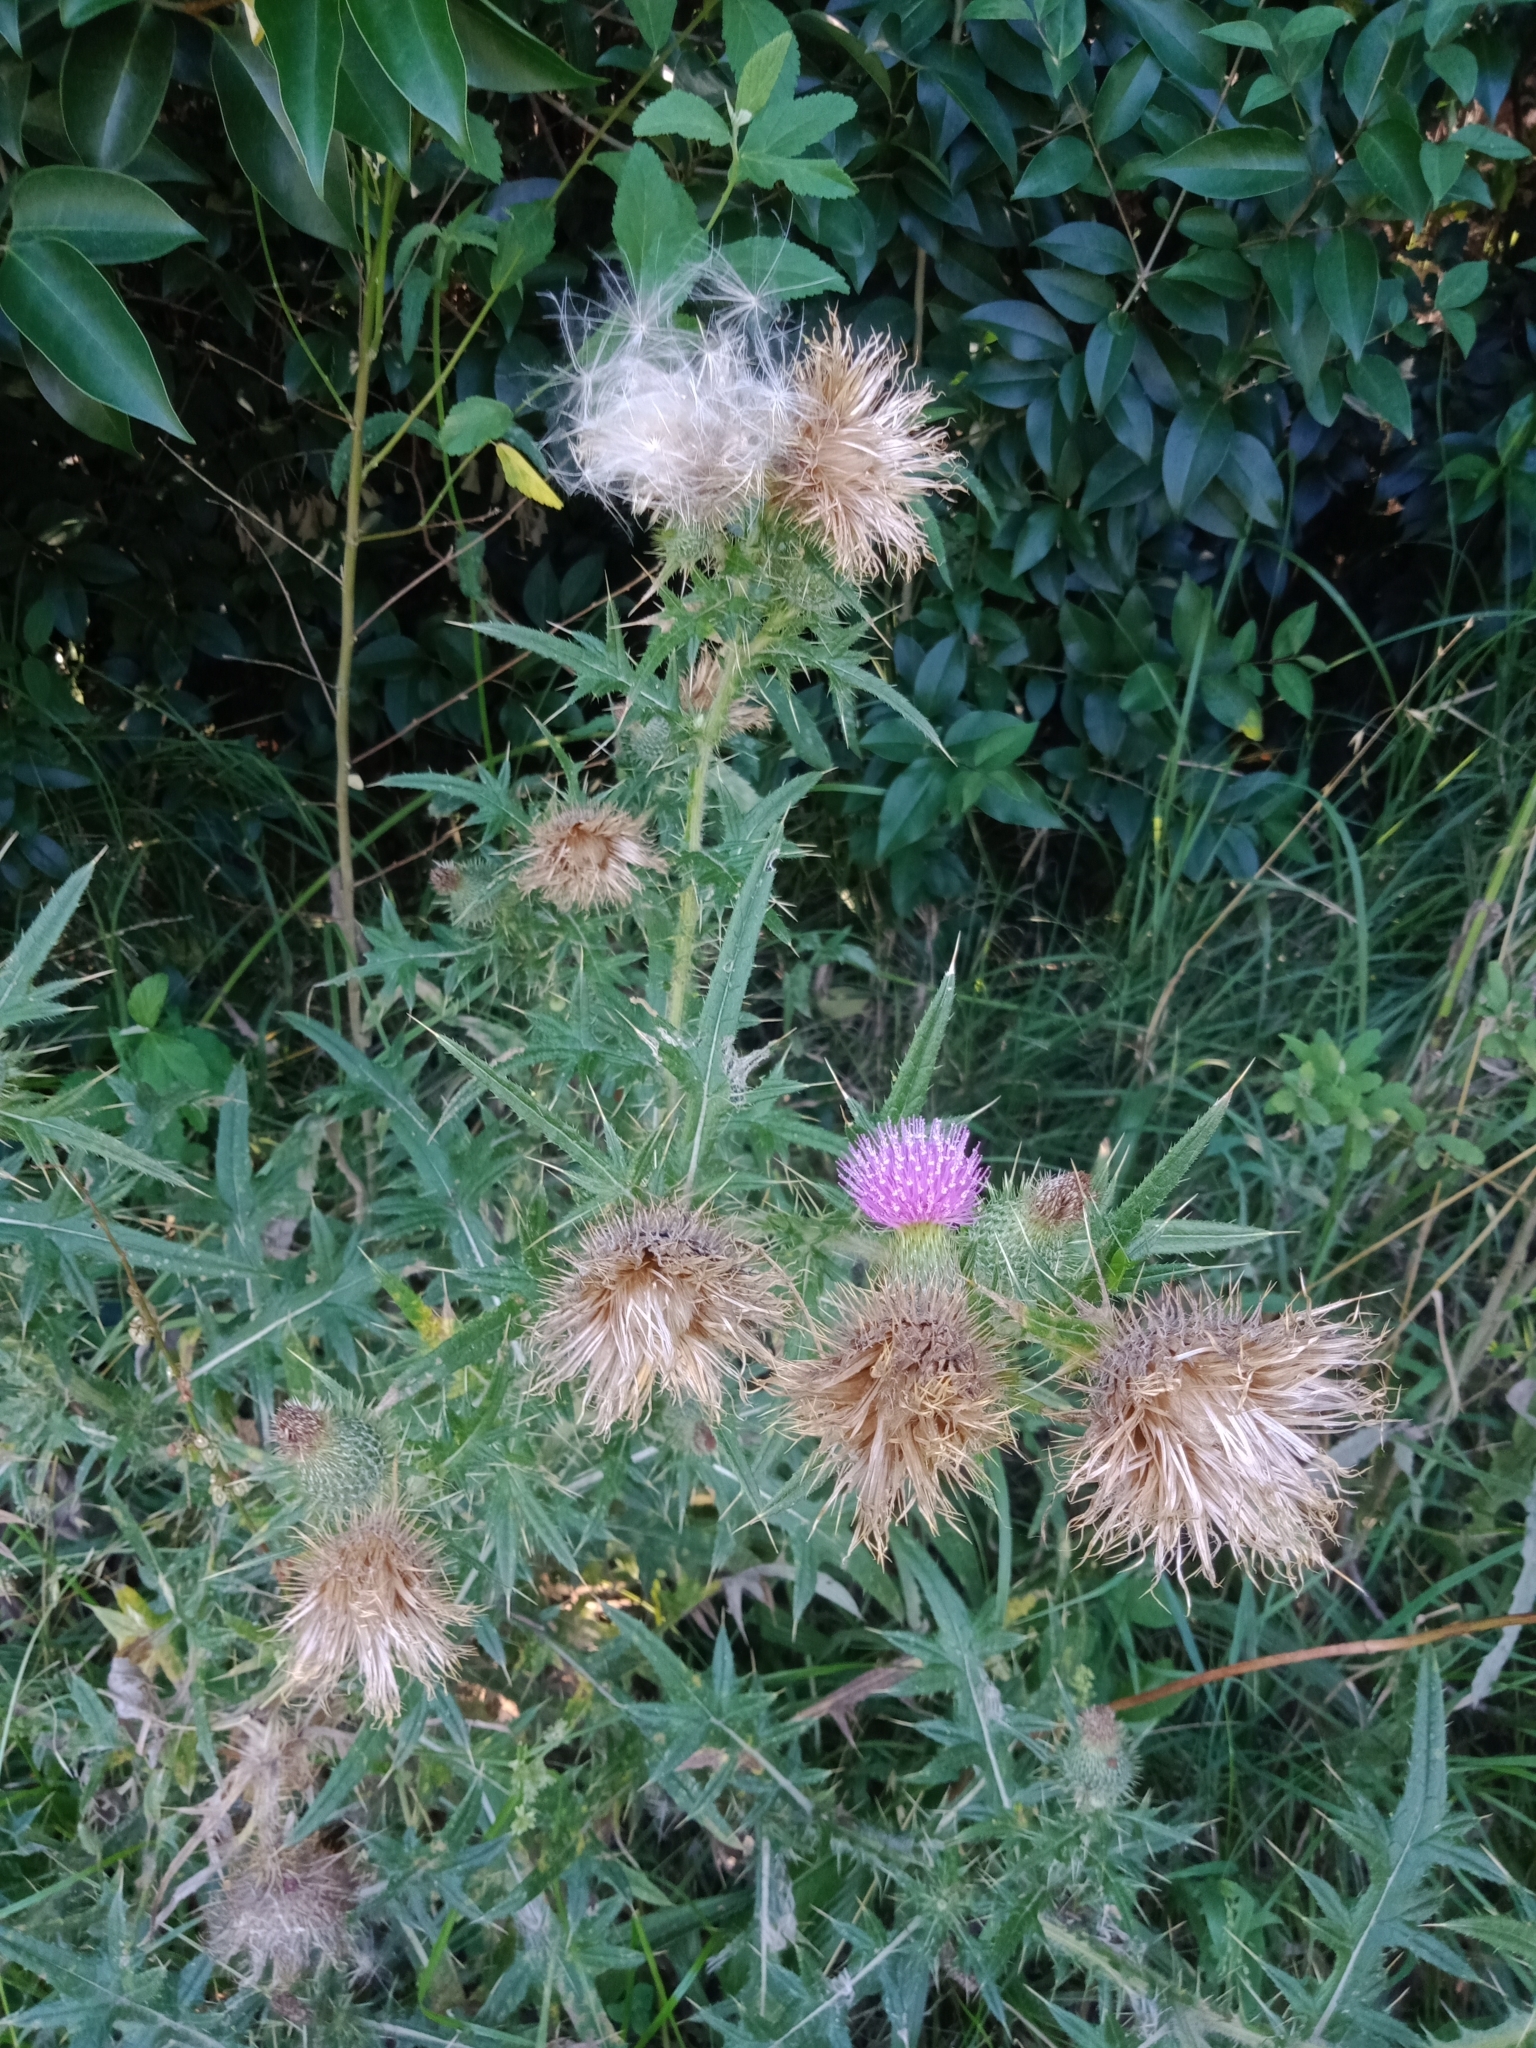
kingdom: Plantae
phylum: Tracheophyta
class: Magnoliopsida
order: Asterales
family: Asteraceae
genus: Cirsium
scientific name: Cirsium vulgare
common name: Bull thistle
